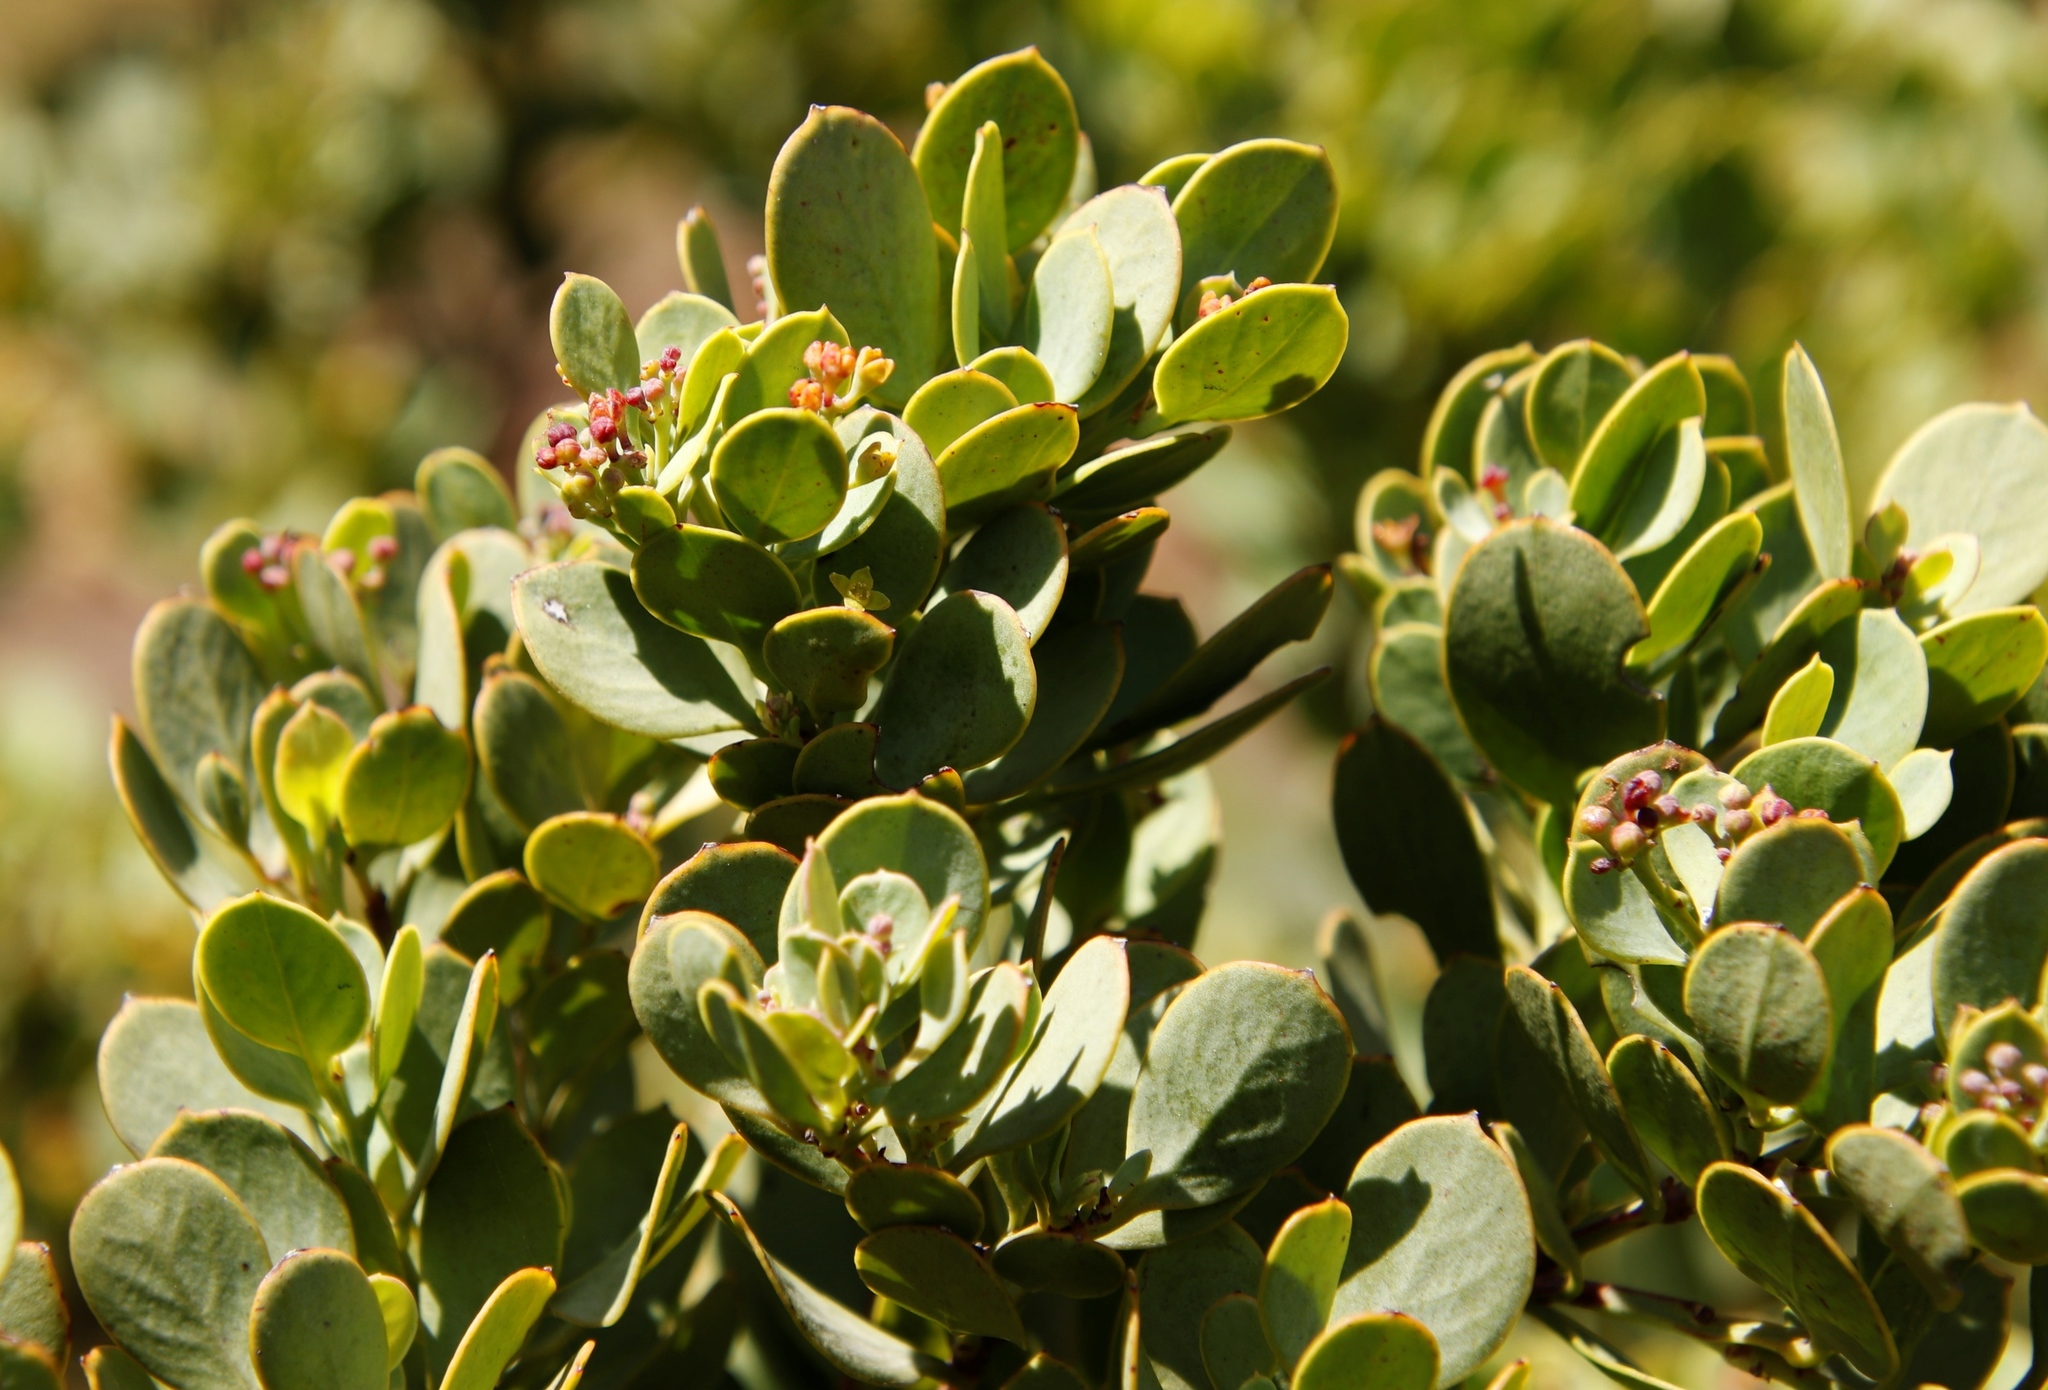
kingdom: Plantae
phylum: Tracheophyta
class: Magnoliopsida
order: Santalales
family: Santalaceae
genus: Osyris
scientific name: Osyris compressa
